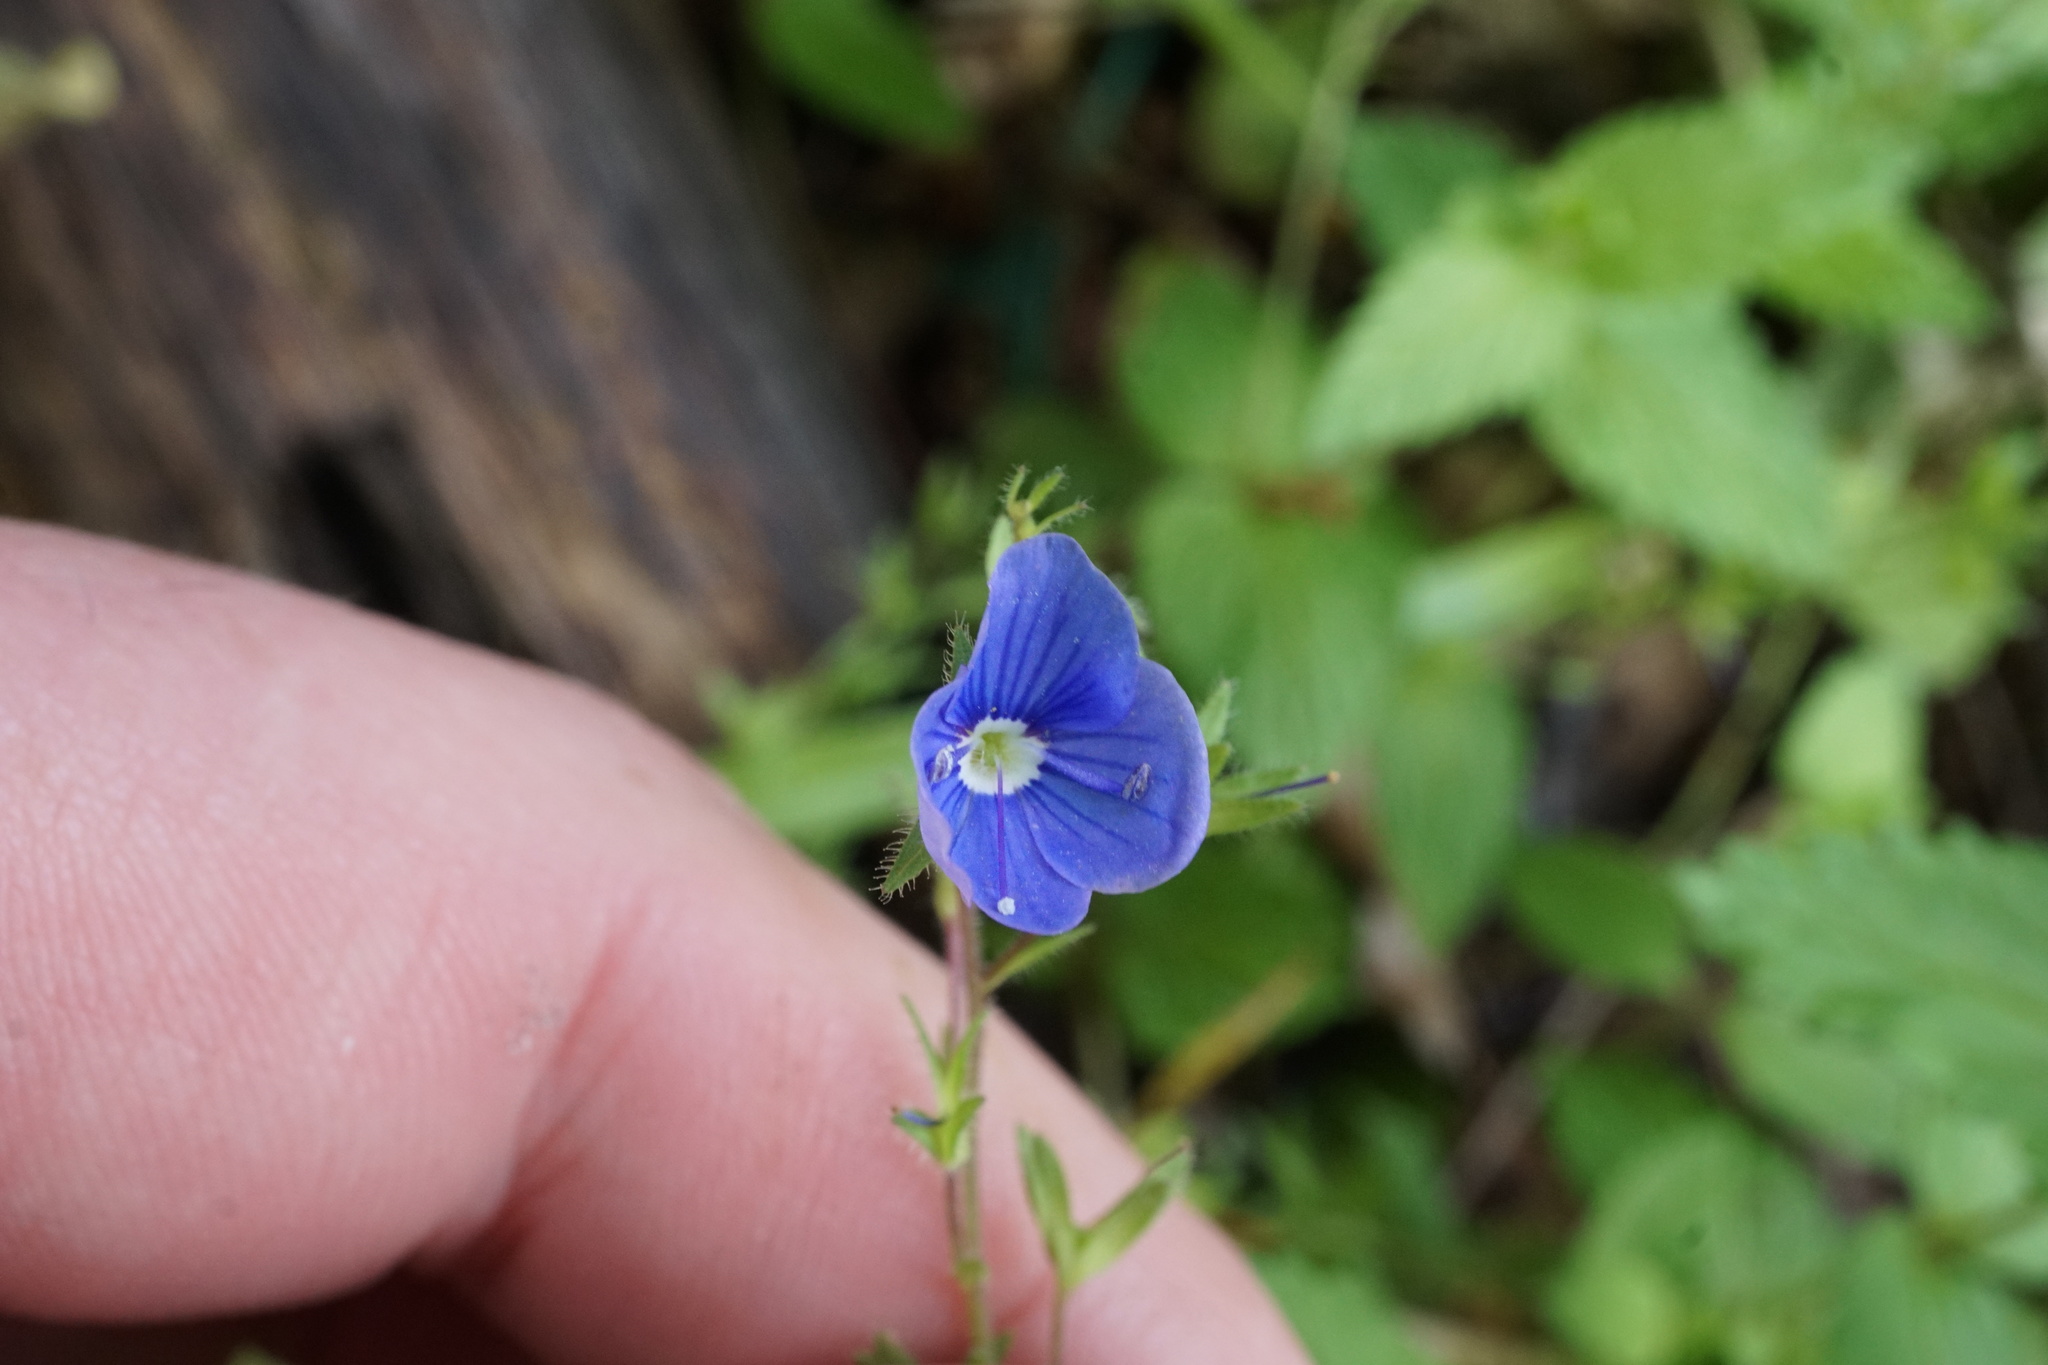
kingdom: Plantae
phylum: Tracheophyta
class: Magnoliopsida
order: Lamiales
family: Plantaginaceae
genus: Veronica
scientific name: Veronica chamaedrys
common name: Germander speedwell
